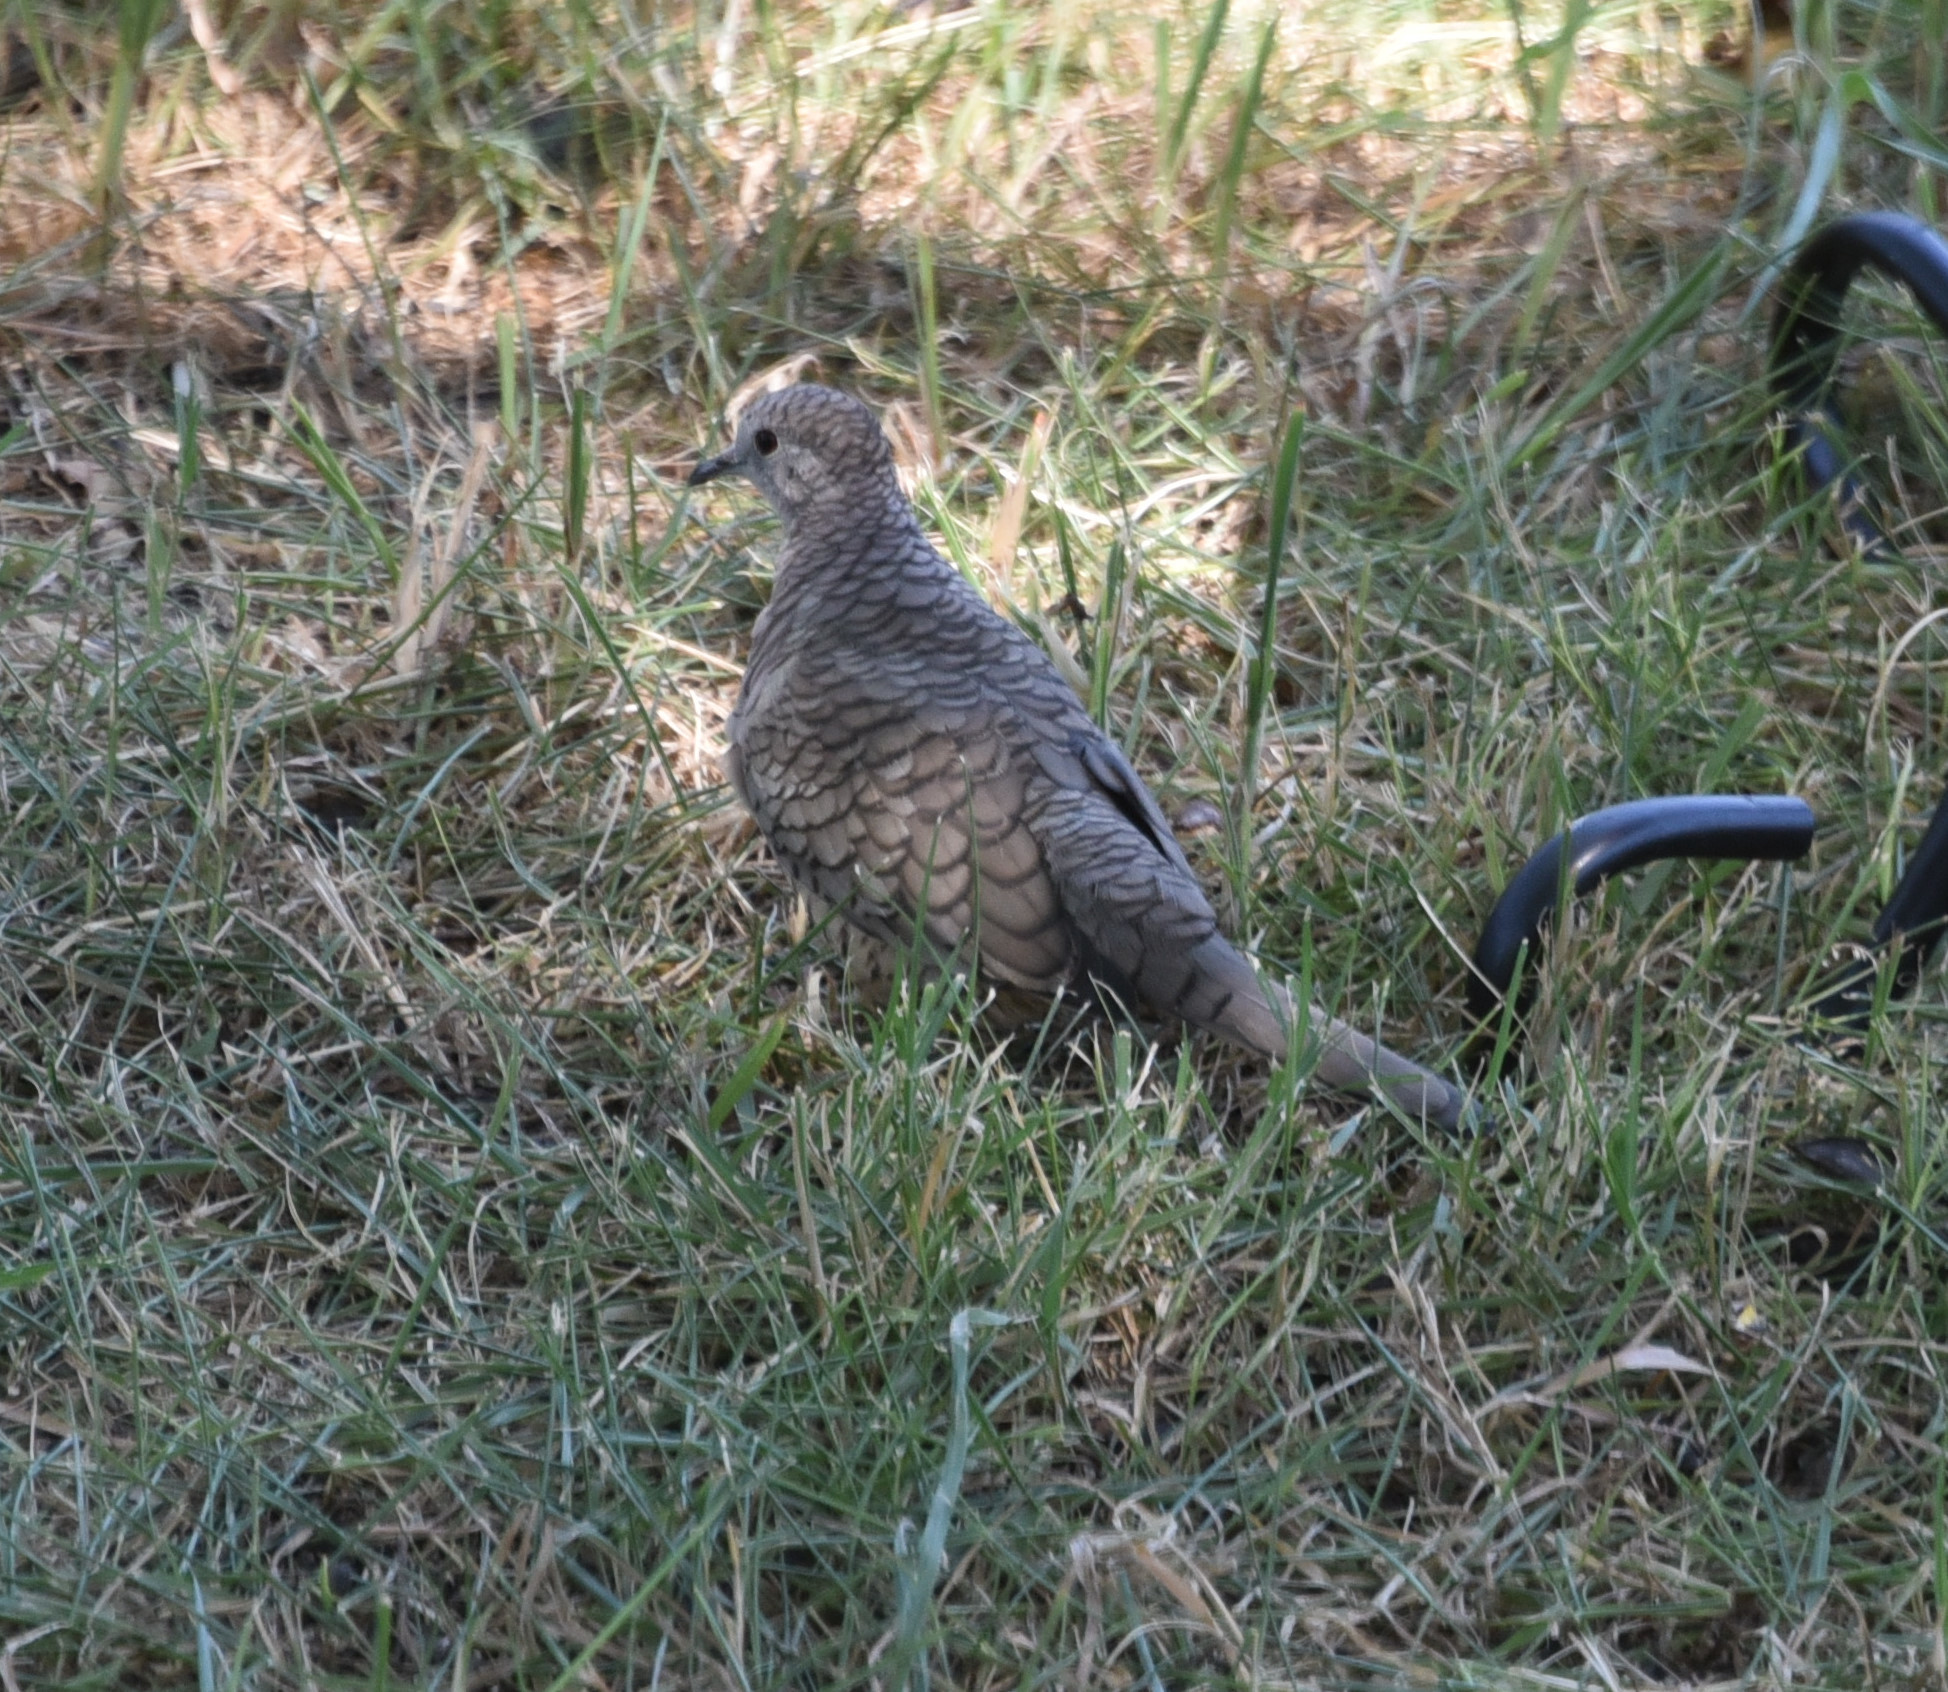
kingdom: Animalia
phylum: Chordata
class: Aves
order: Columbiformes
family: Columbidae
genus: Columbina
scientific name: Columbina inca
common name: Inca dove
